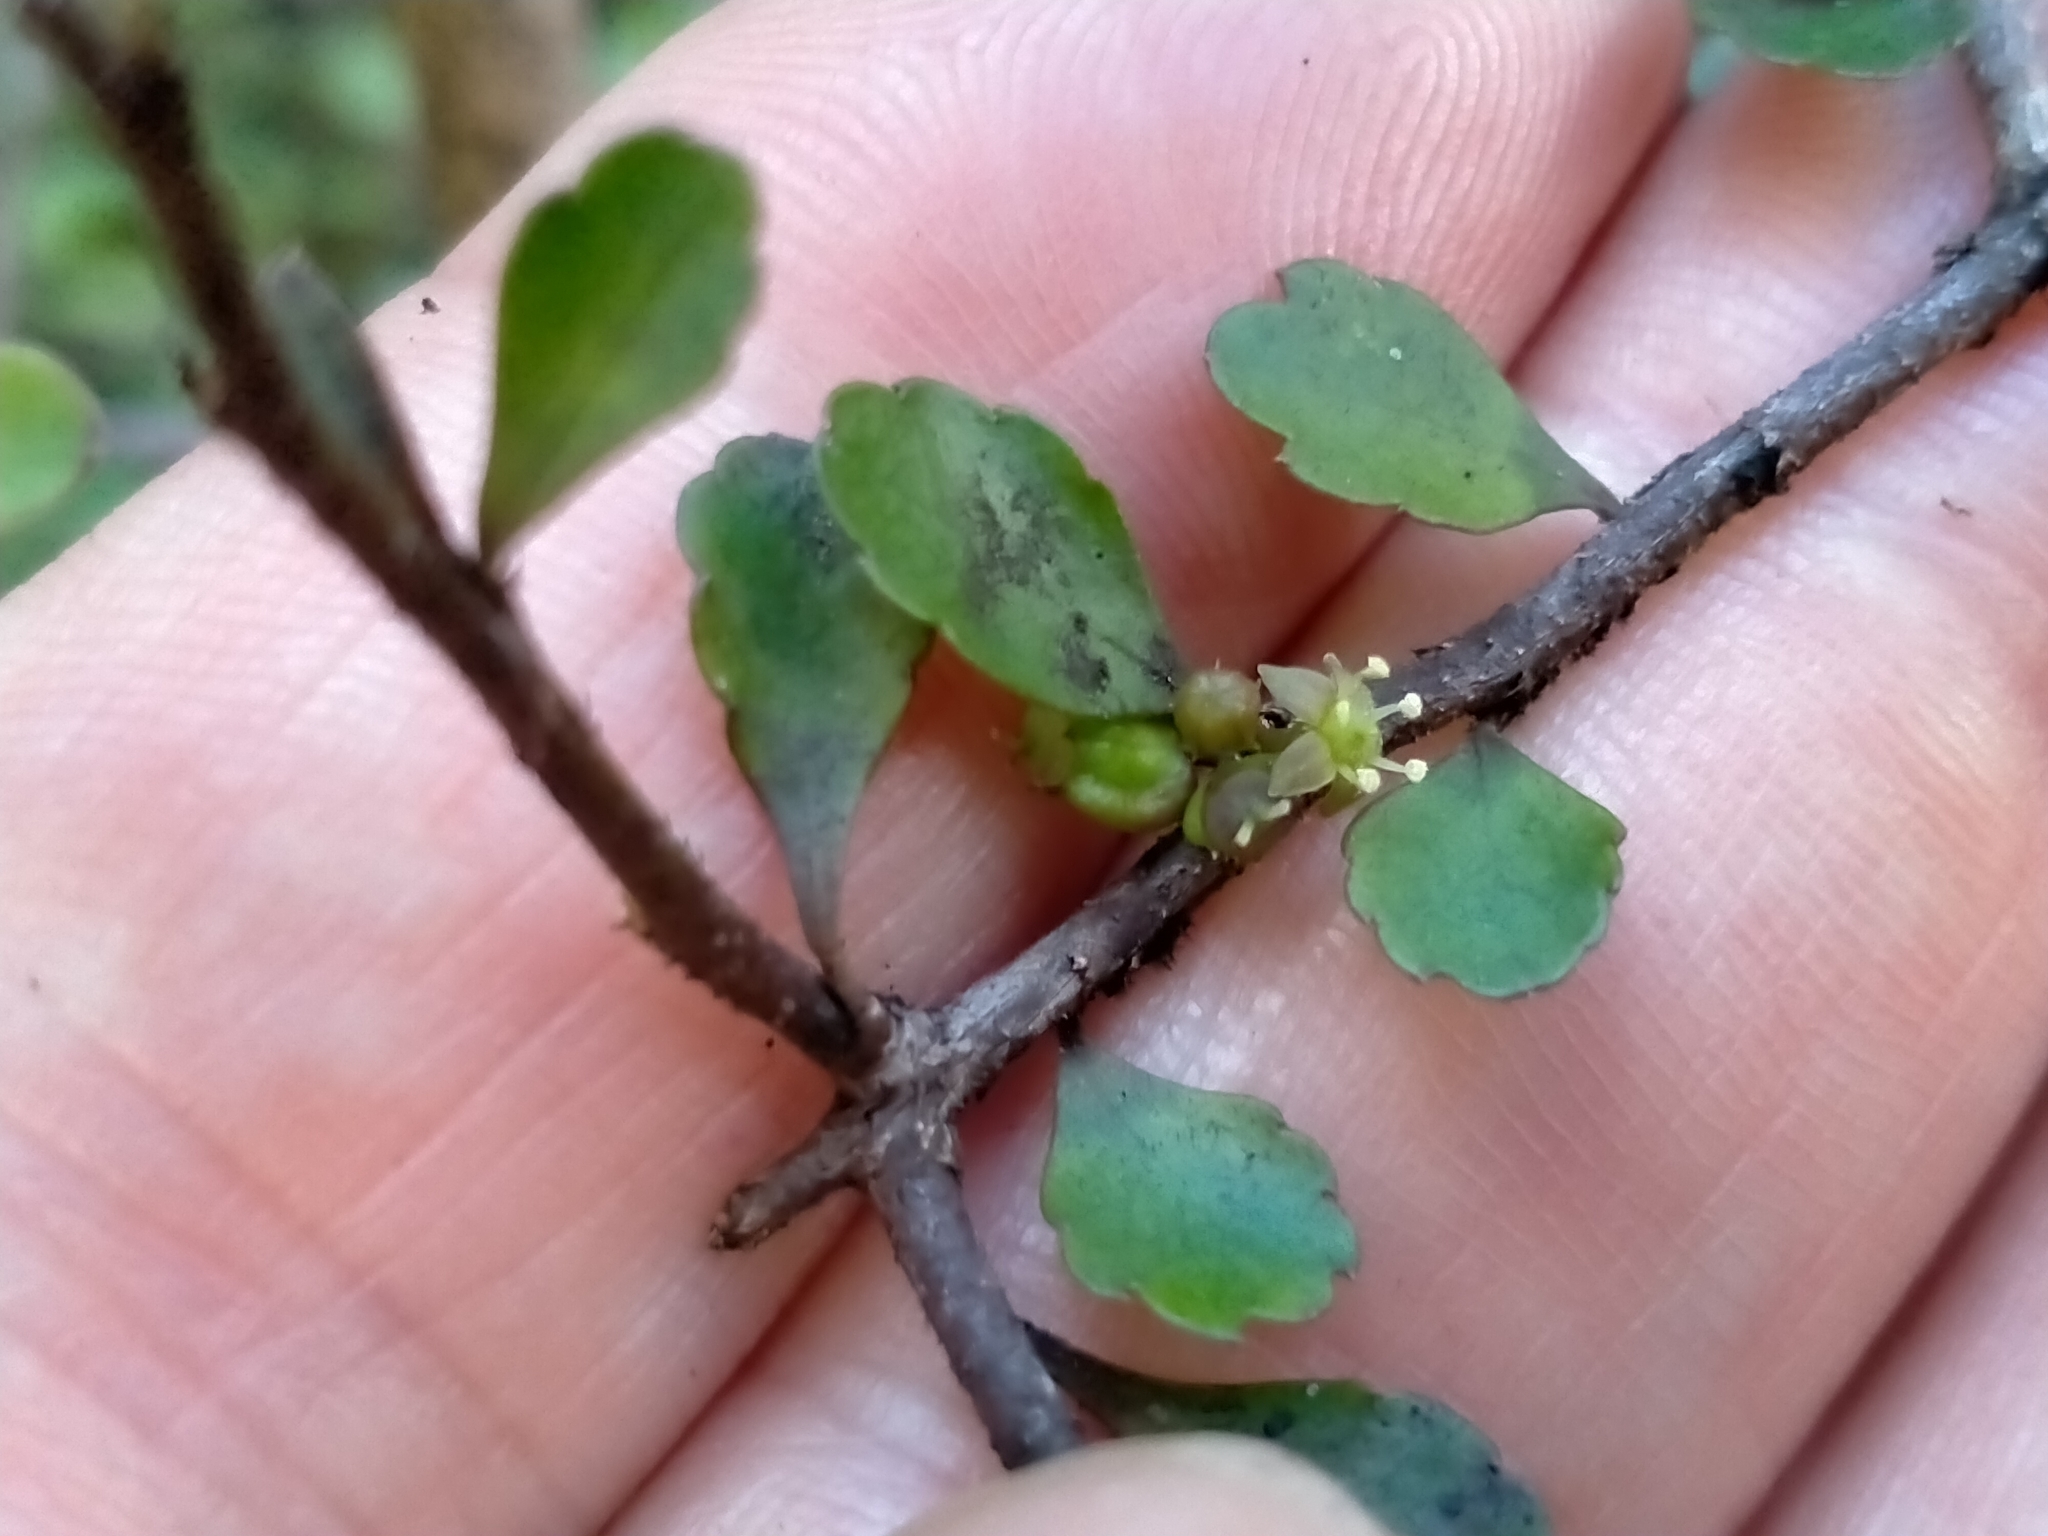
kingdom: Plantae
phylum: Tracheophyta
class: Magnoliopsida
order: Apiales
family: Araliaceae
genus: Raukaua
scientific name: Raukaua anomalus
